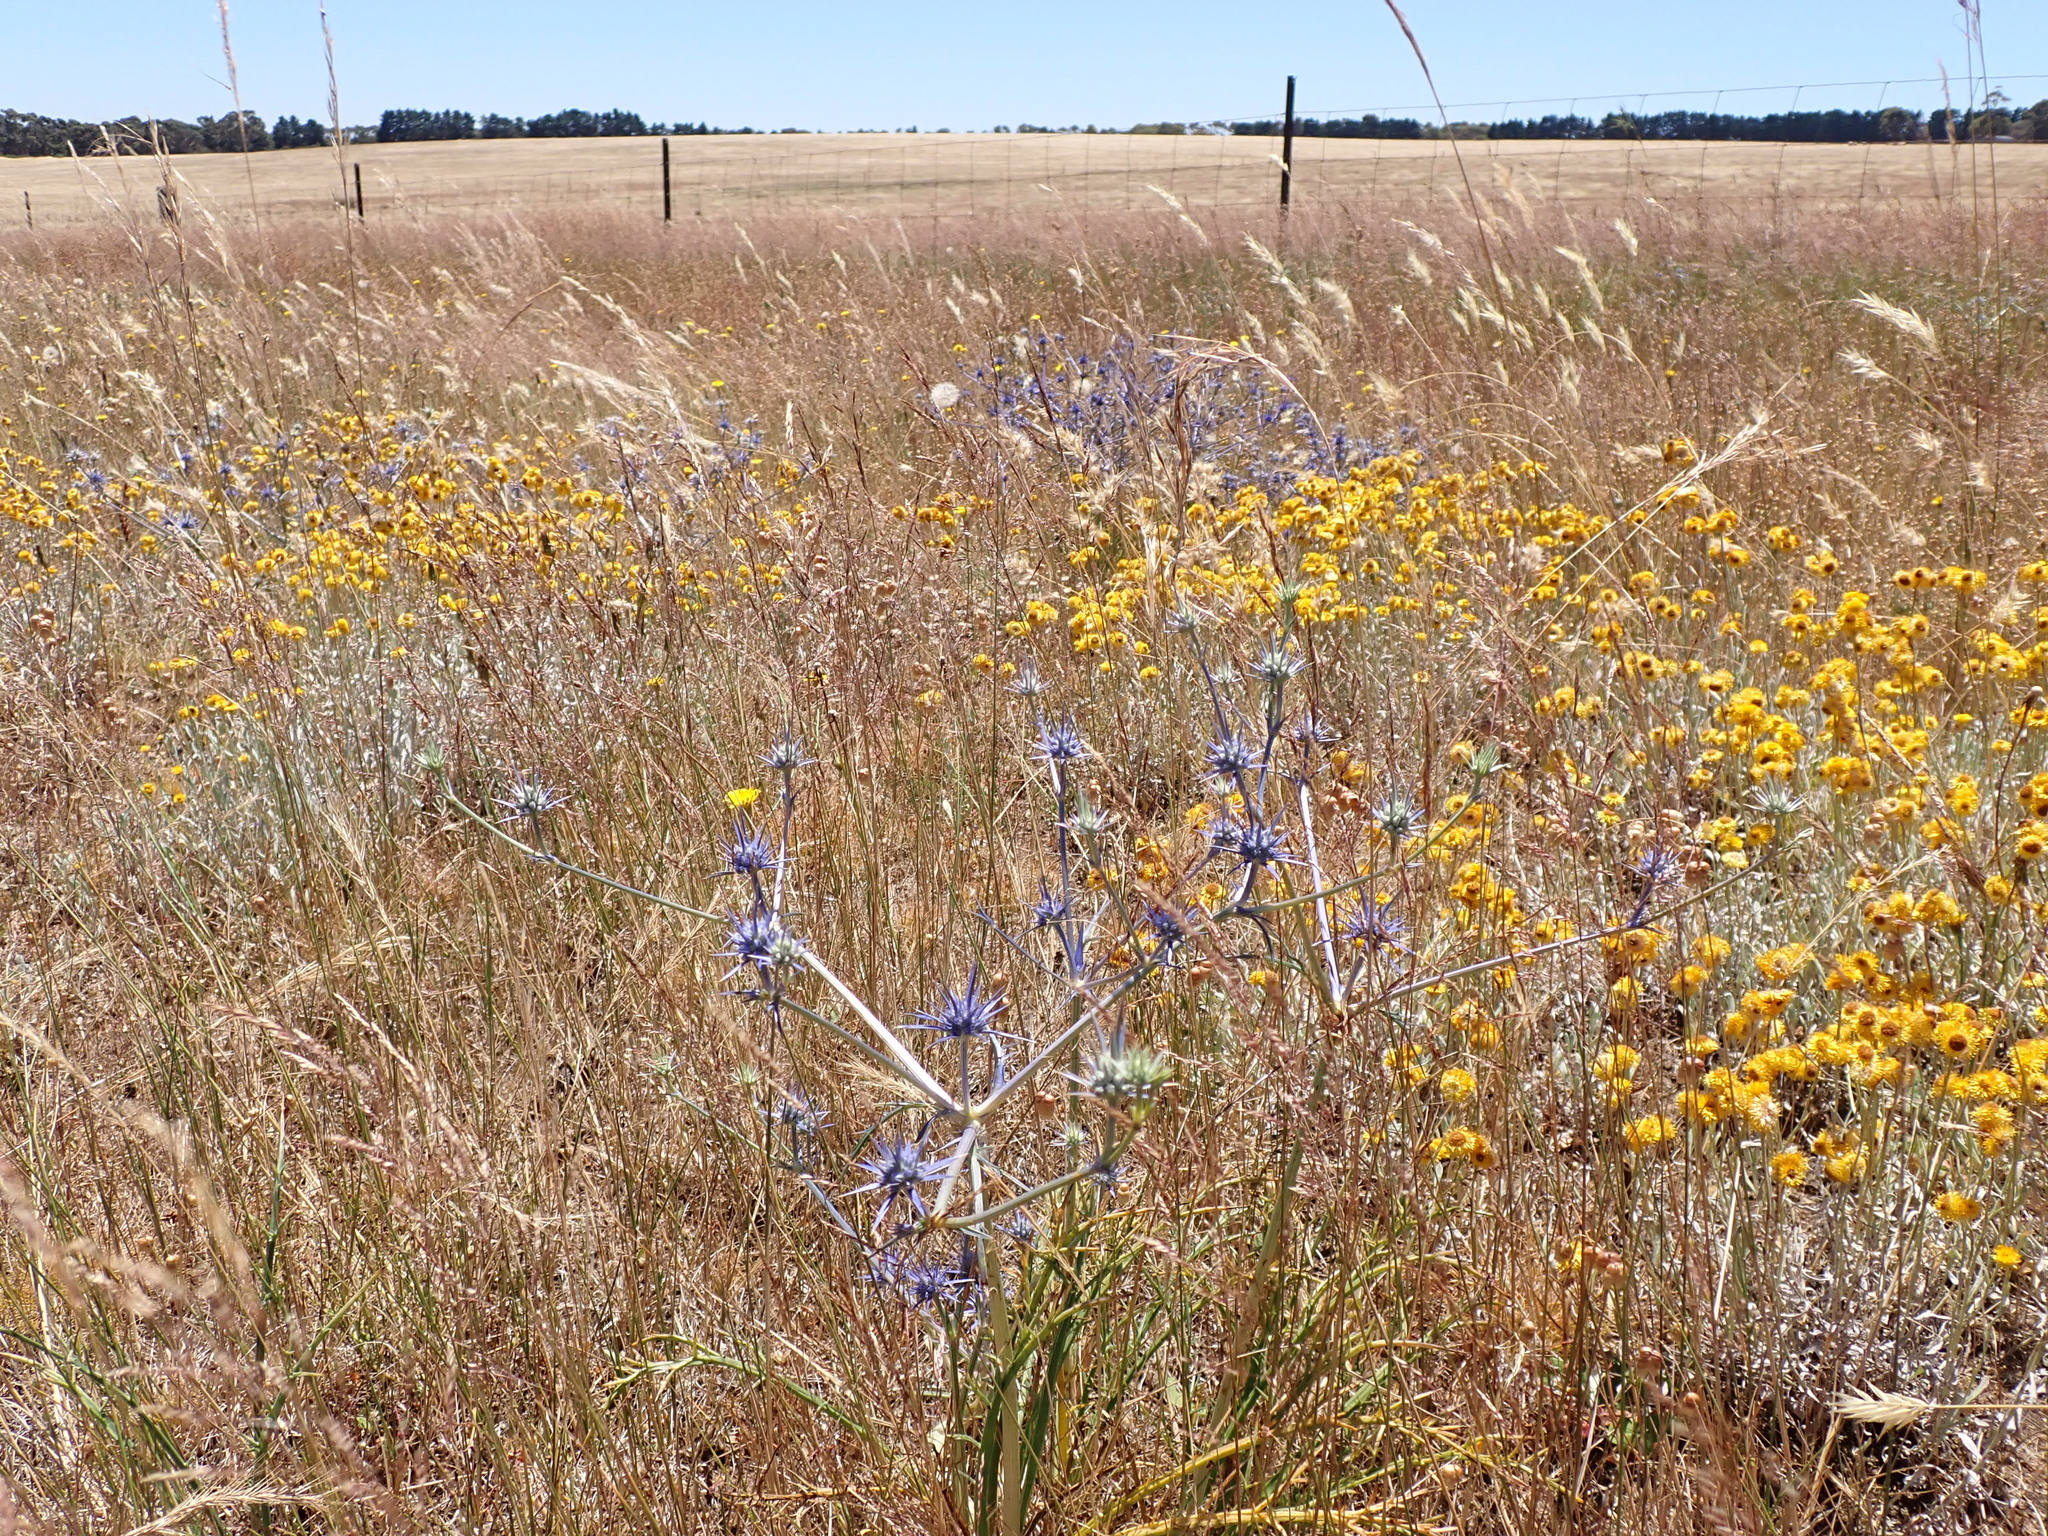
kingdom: Plantae
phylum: Tracheophyta
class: Magnoliopsida
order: Apiales
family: Apiaceae
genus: Eryngium
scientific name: Eryngium ovinum
